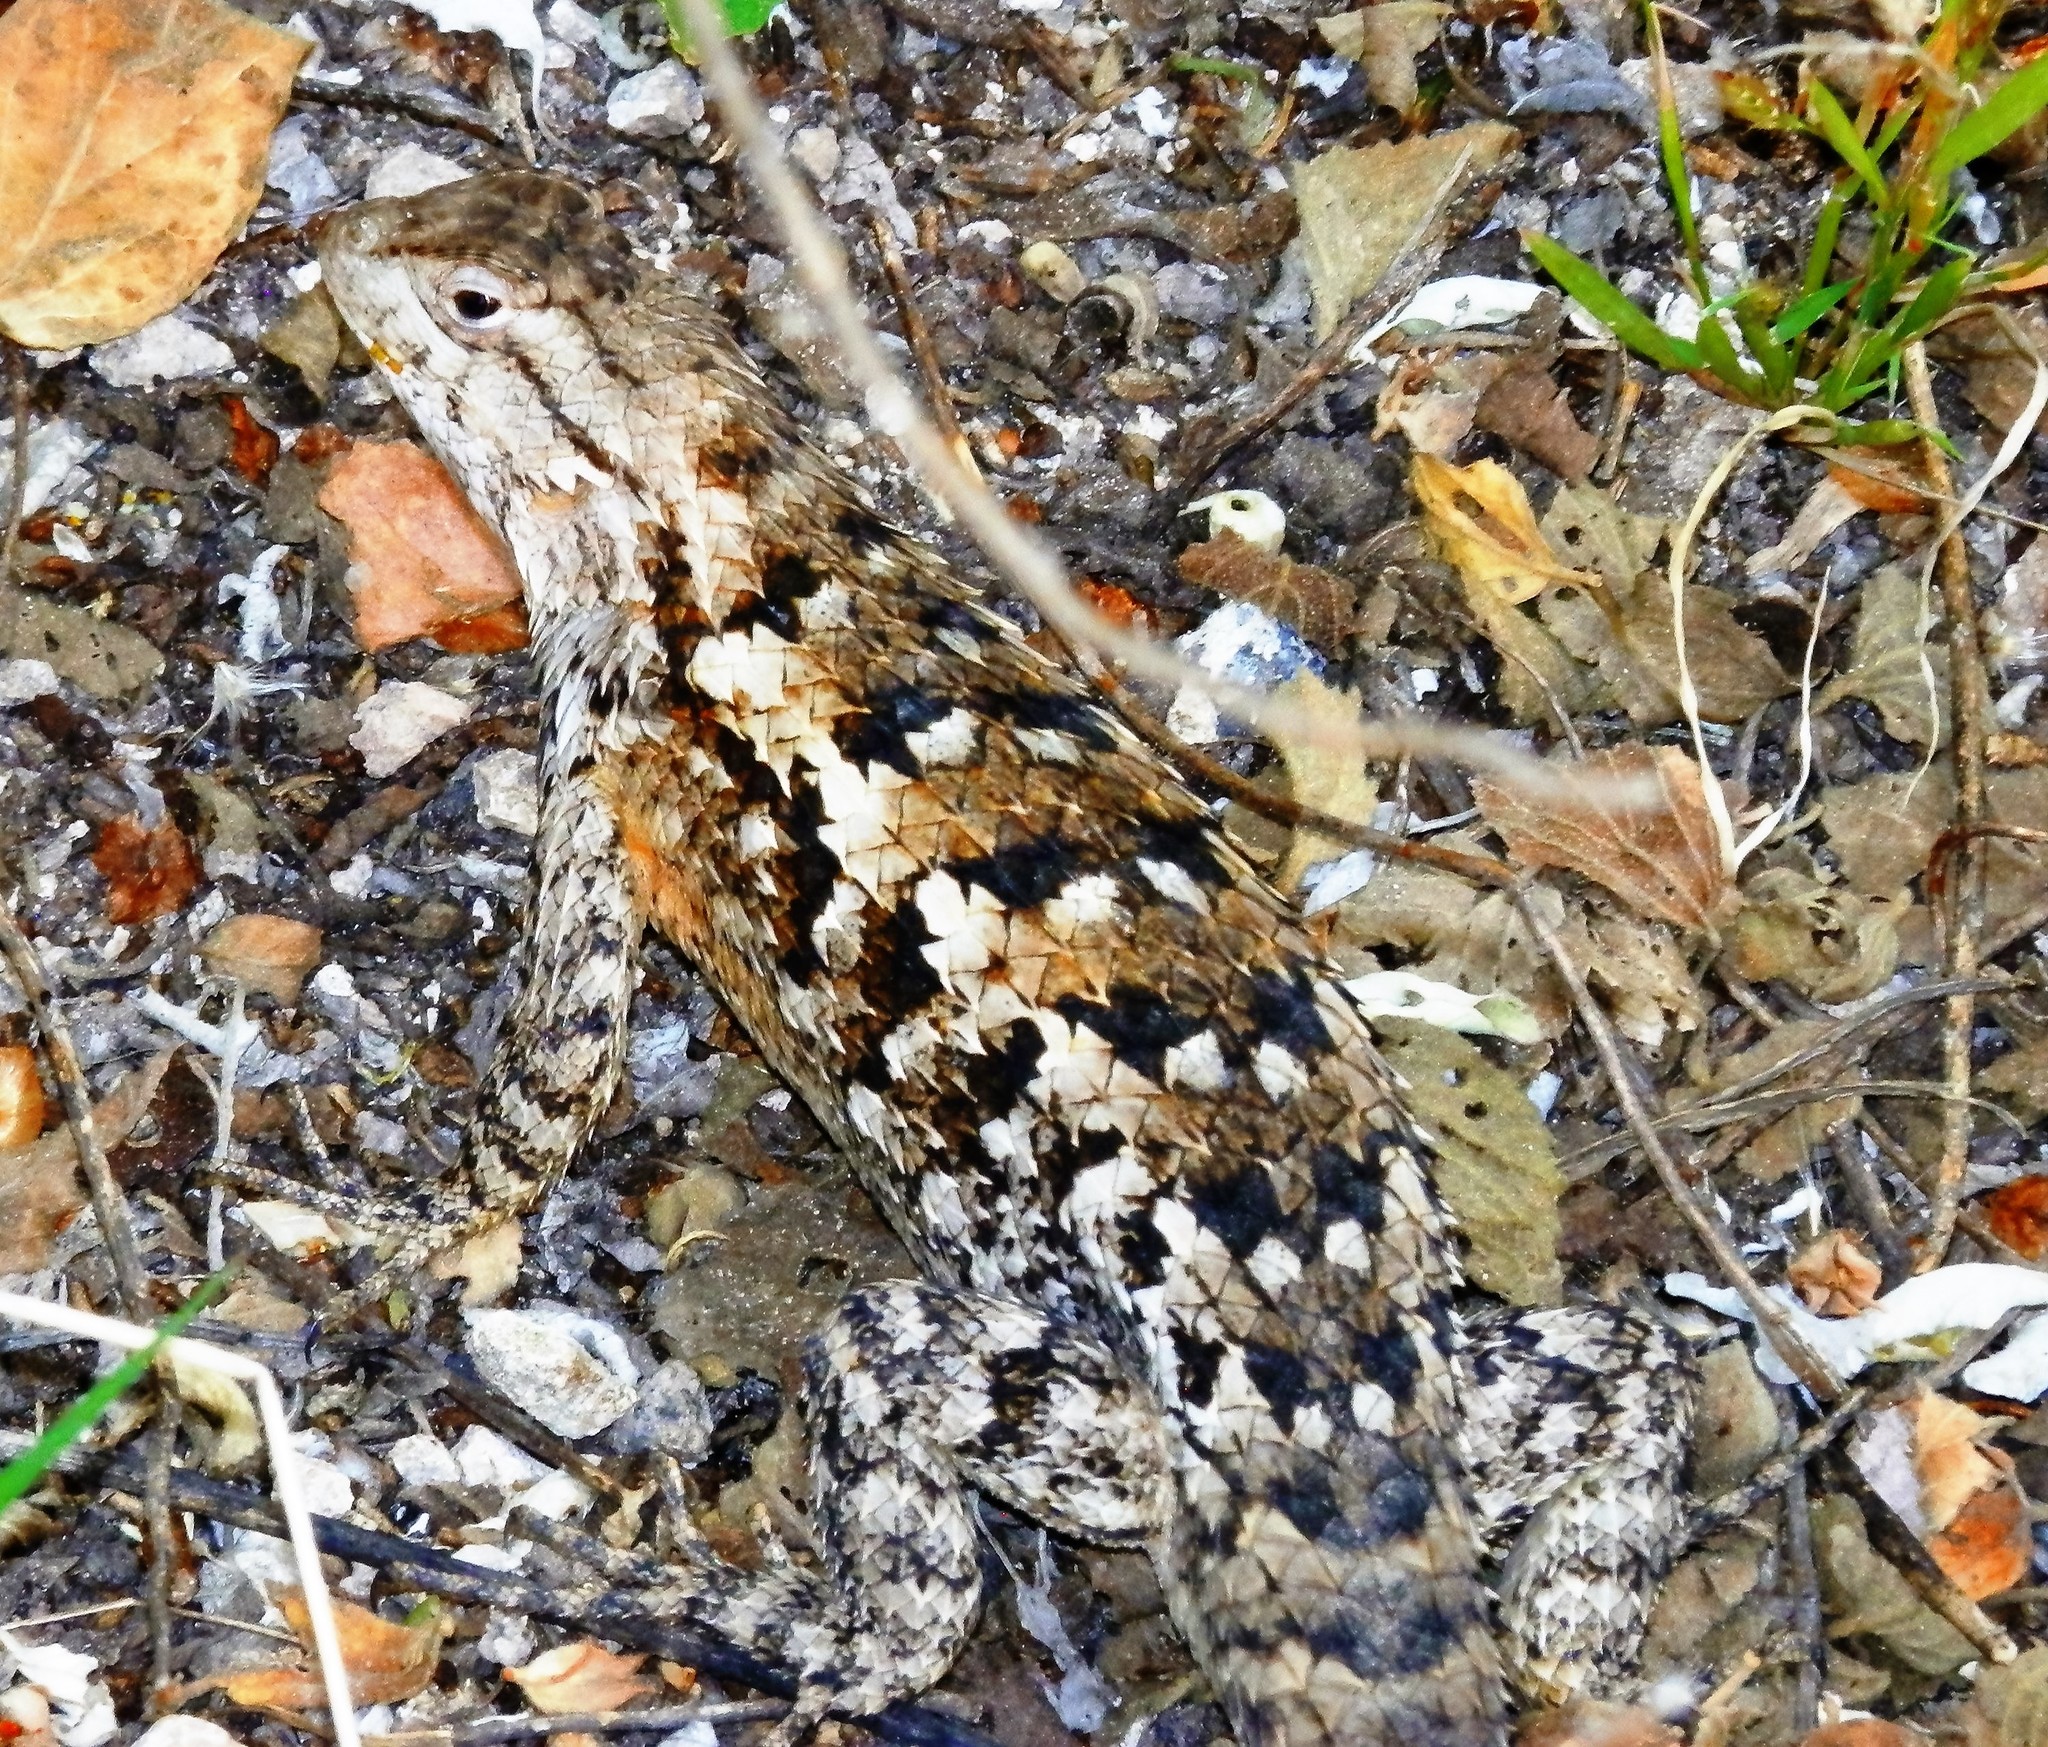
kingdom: Animalia
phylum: Chordata
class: Squamata
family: Phrynosomatidae
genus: Sceloporus
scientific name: Sceloporus spinosus
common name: Blue-spotted spiny lizard [caeruleopunctatus]
